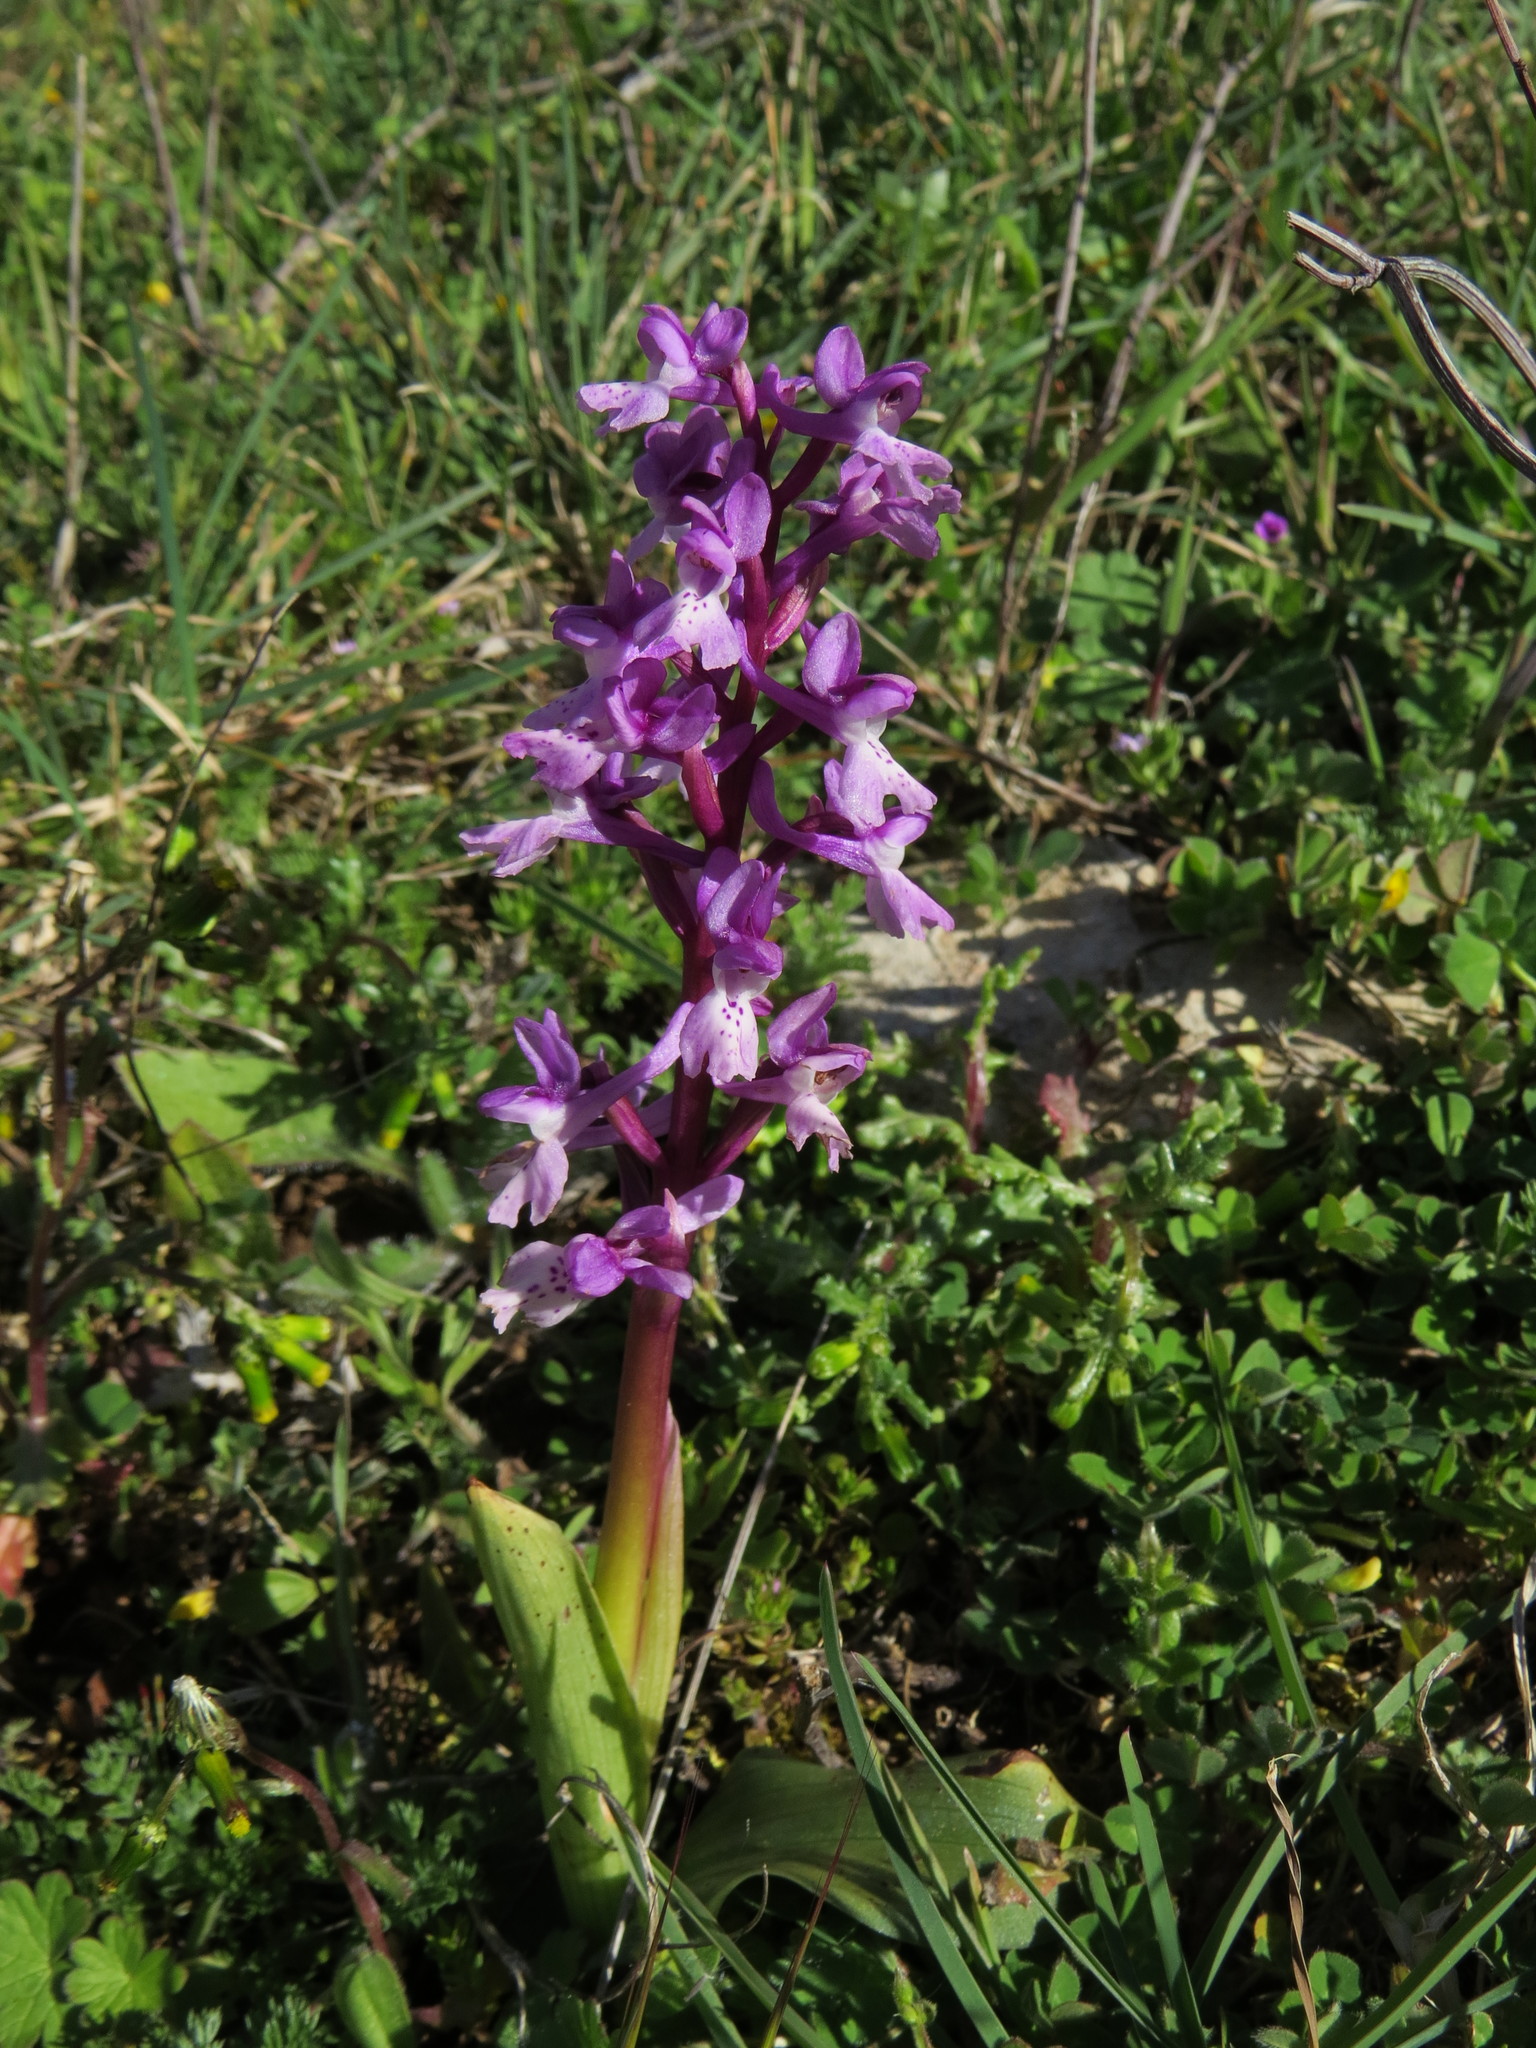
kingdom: Plantae
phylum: Tracheophyta
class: Liliopsida
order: Asparagales
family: Orchidaceae
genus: Orchis
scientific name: Orchis olbiensis
